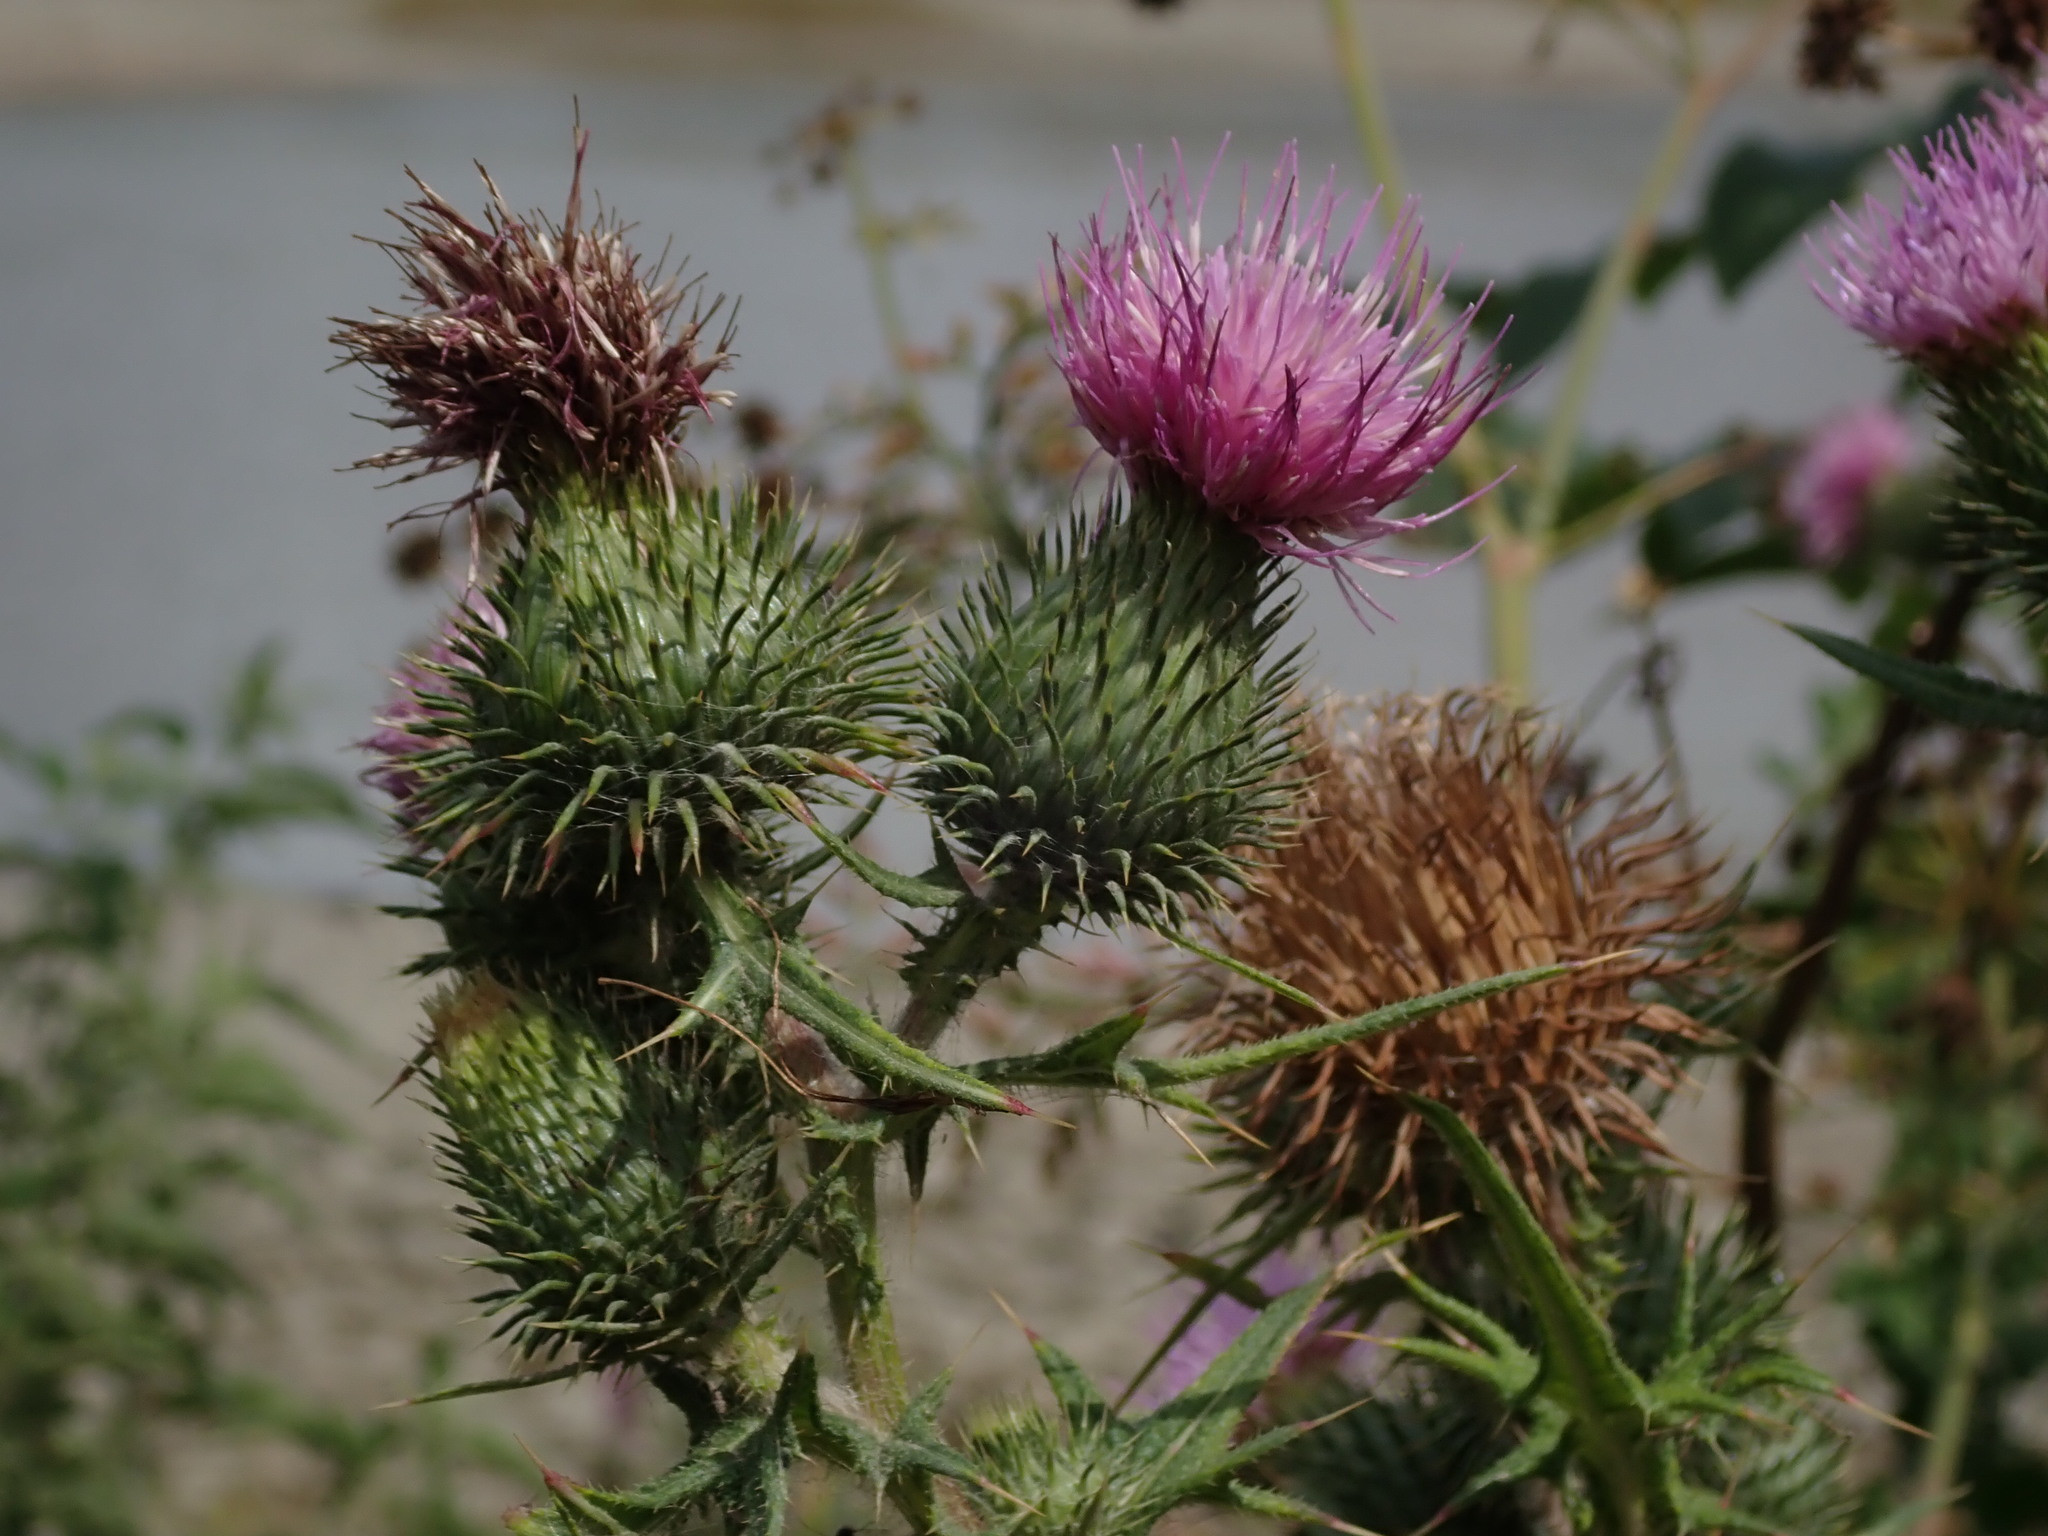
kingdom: Plantae
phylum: Tracheophyta
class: Magnoliopsida
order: Asterales
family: Asteraceae
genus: Cirsium
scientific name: Cirsium vulgare
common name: Bull thistle
